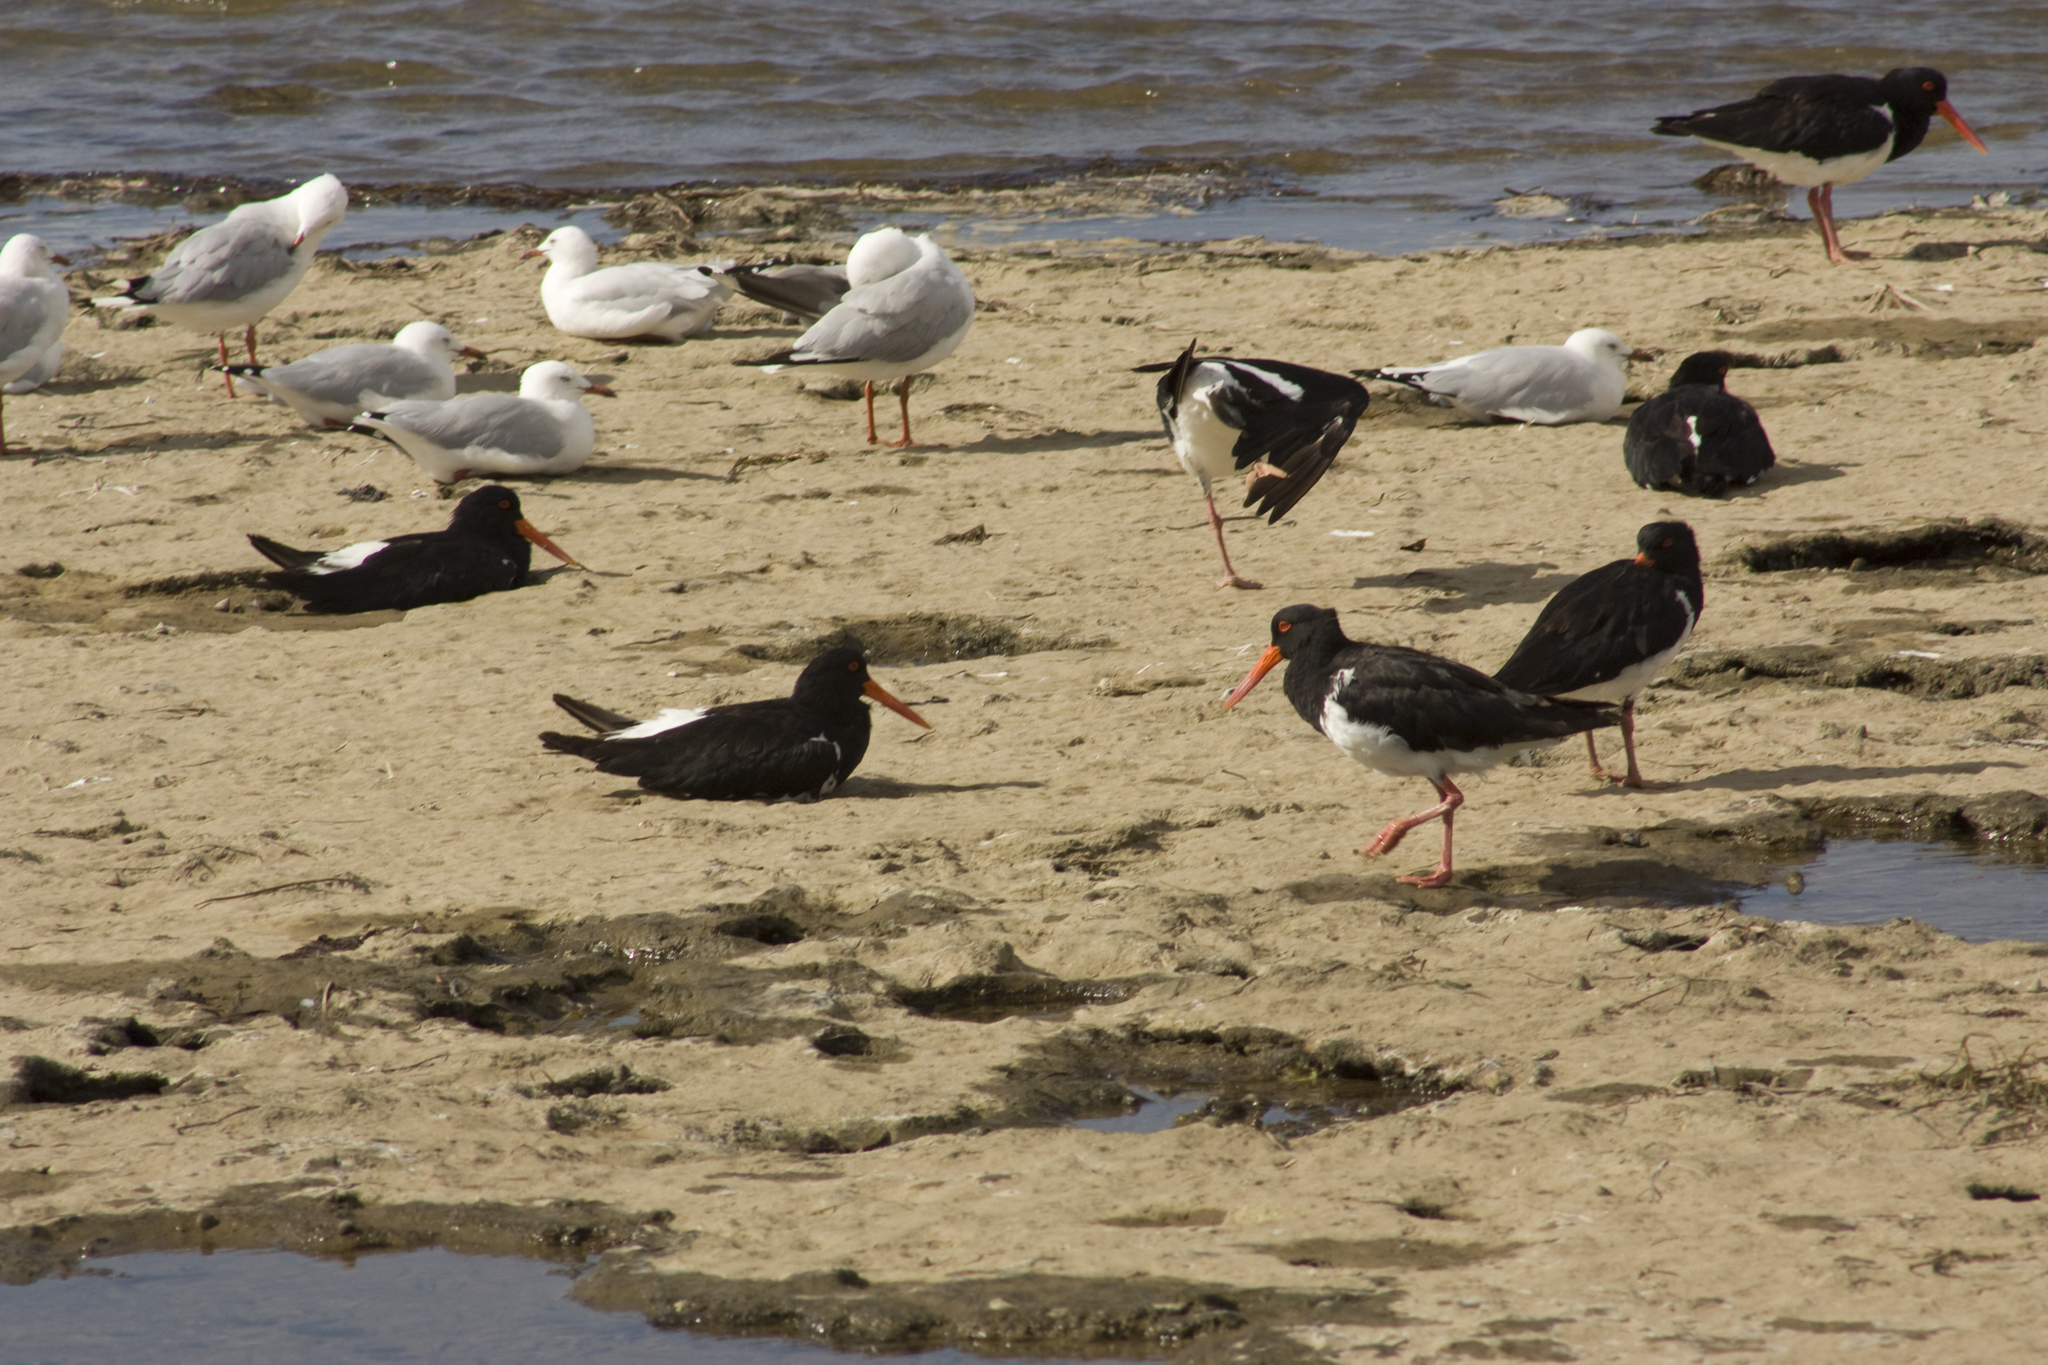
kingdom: Animalia
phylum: Chordata
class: Aves
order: Charadriiformes
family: Haematopodidae
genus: Haematopus
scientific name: Haematopus longirostris
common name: Pied oystercatcher
